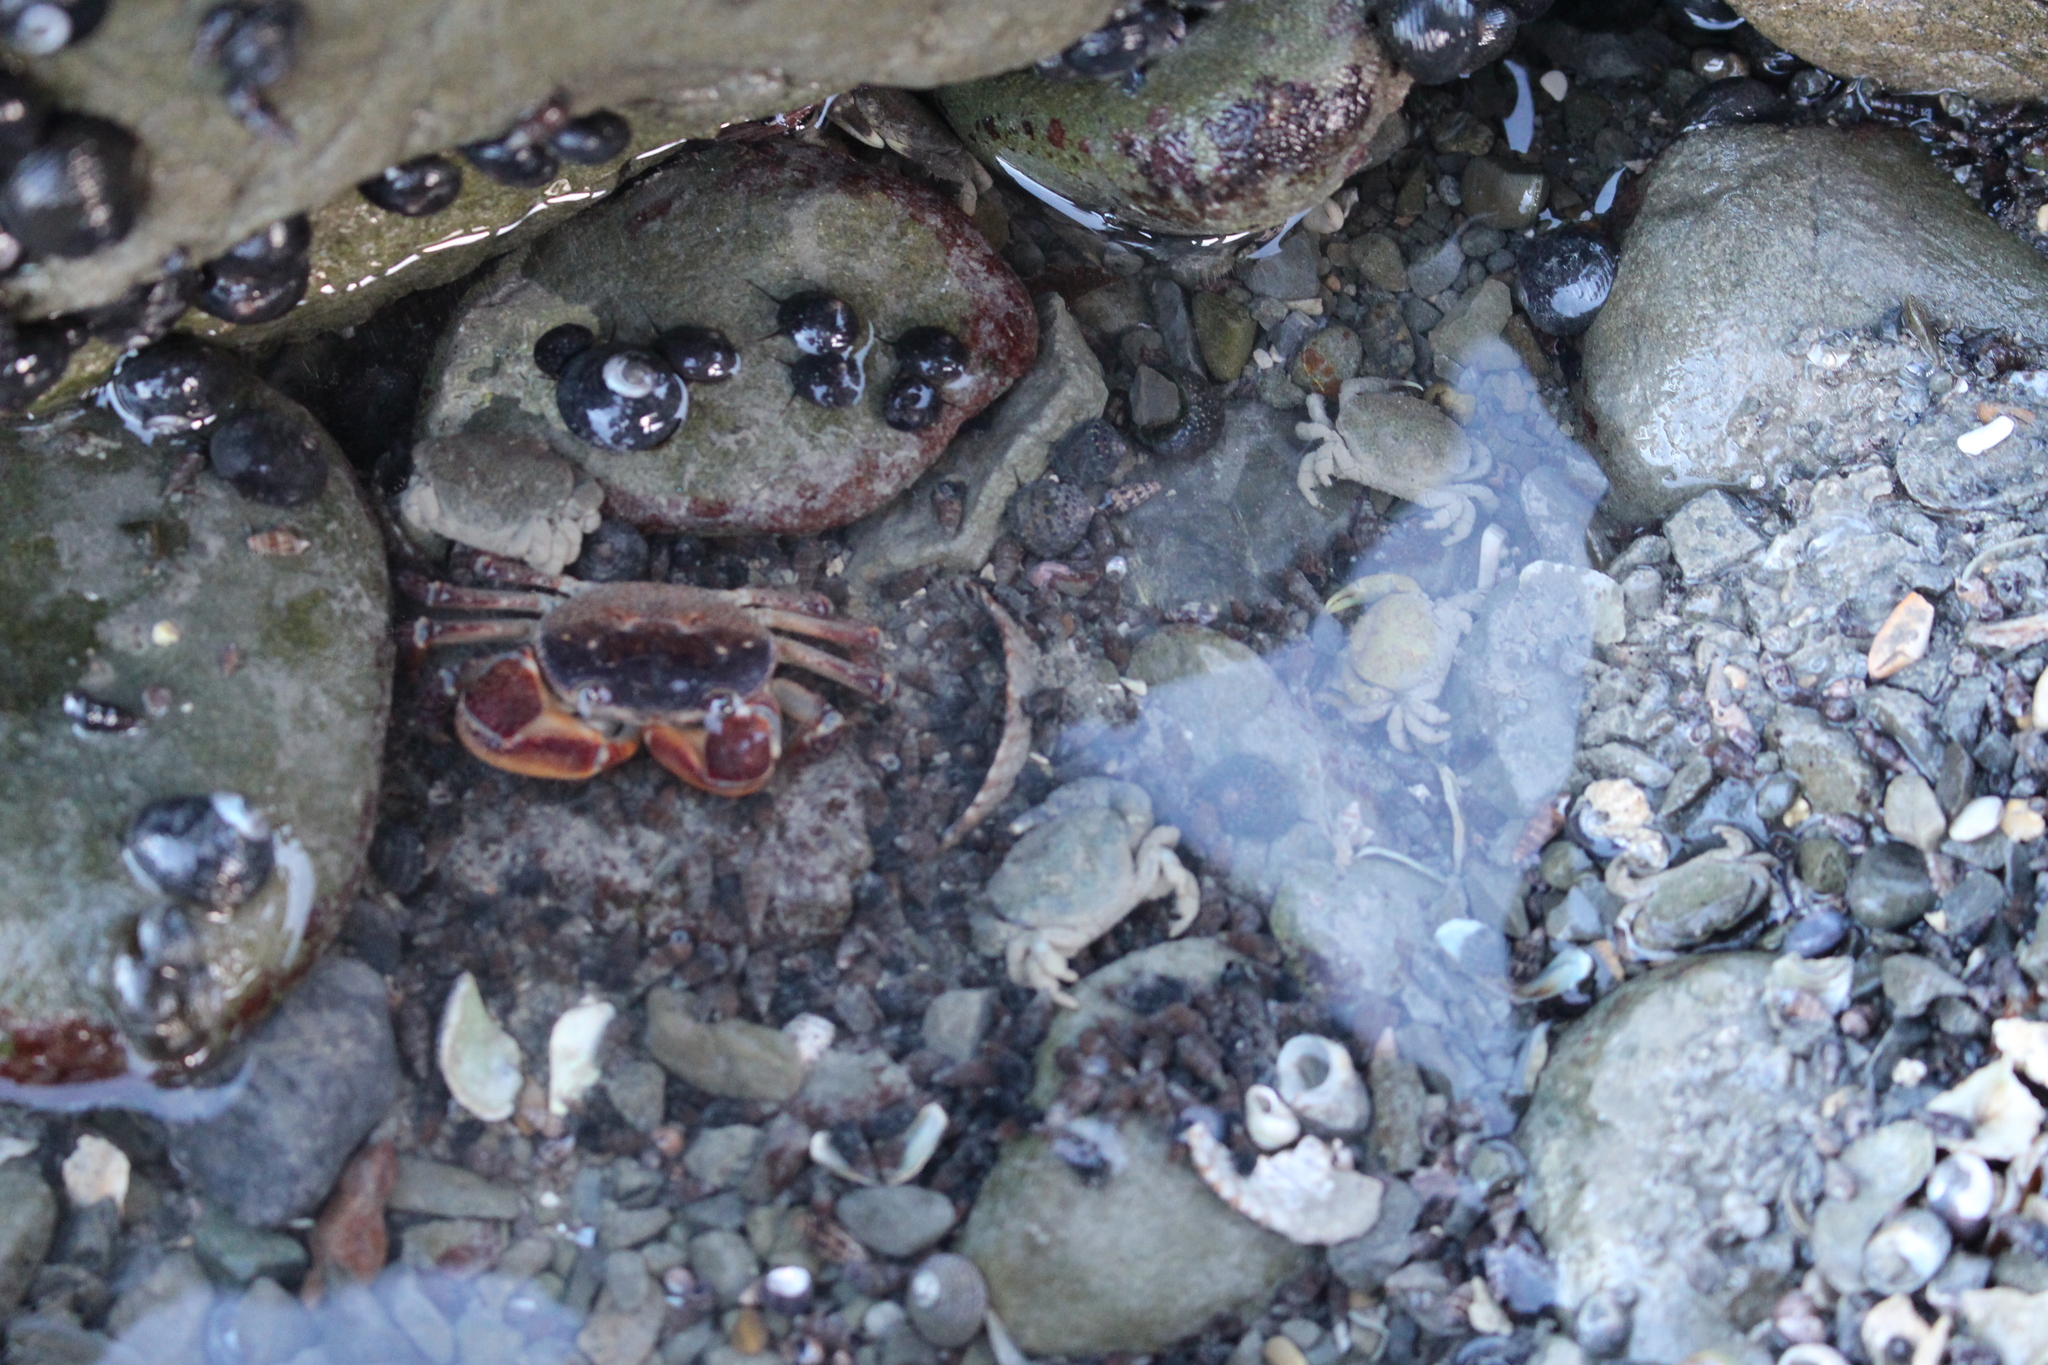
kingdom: Animalia
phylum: Arthropoda
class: Malacostraca
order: Decapoda
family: Varunidae
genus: Cyclograpsus
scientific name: Cyclograpsus lavauxi
